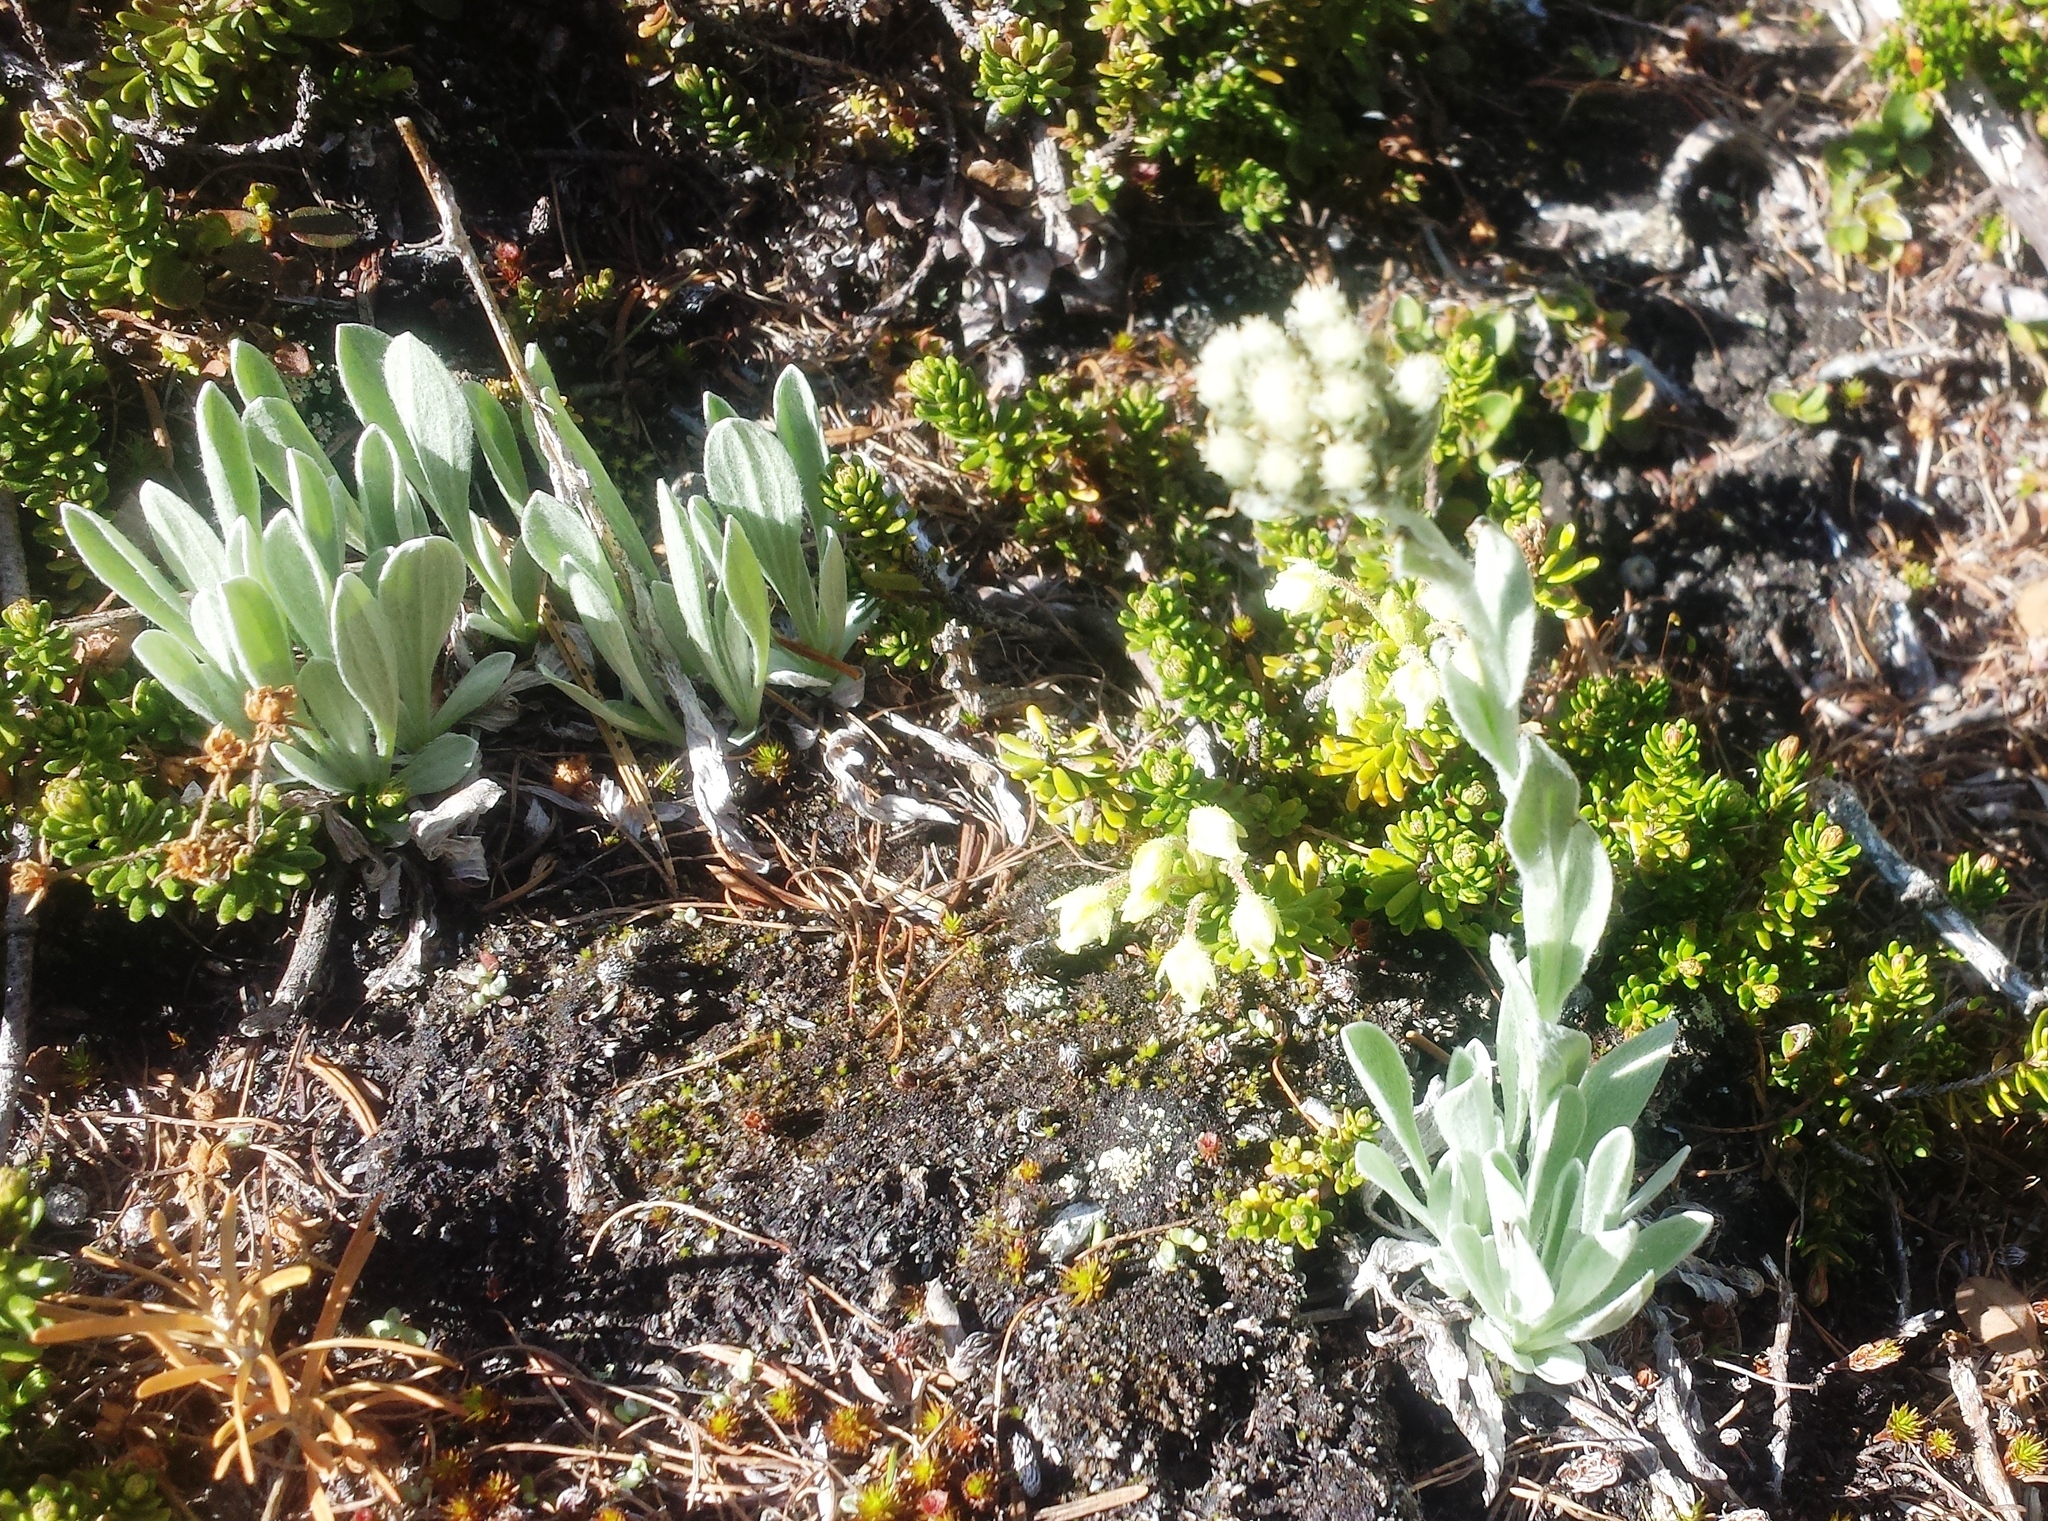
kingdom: Plantae
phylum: Tracheophyta
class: Magnoliopsida
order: Asterales
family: Asteraceae
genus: Antennaria
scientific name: Antennaria lanata
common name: Woolly pussytoes
